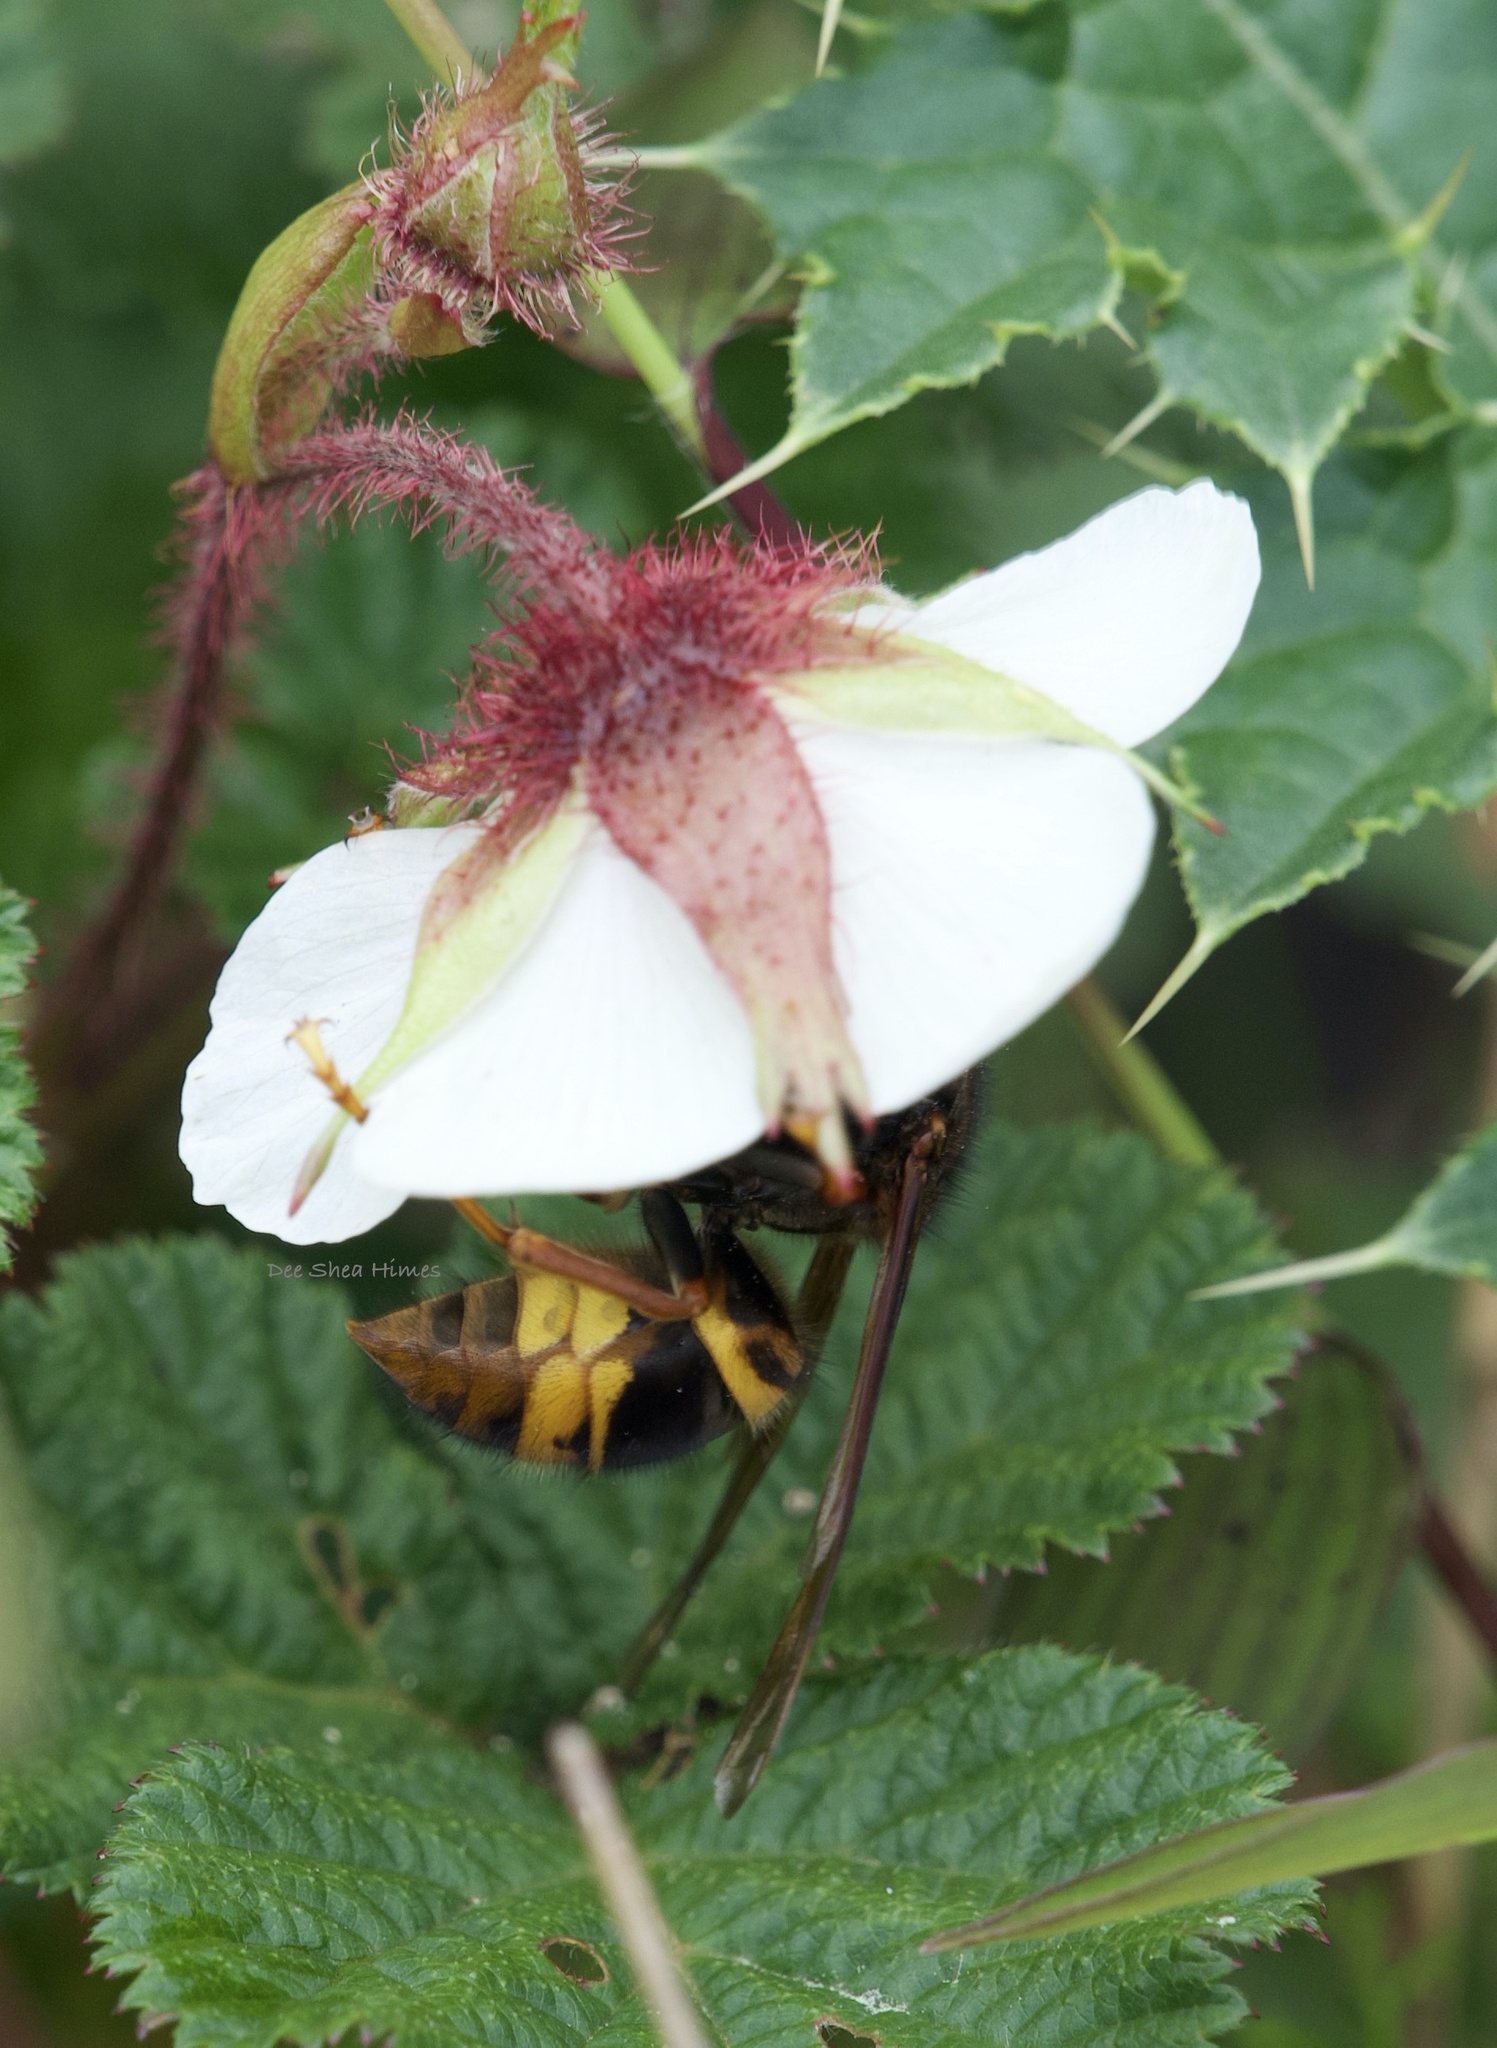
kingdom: Animalia
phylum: Arthropoda
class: Insecta
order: Hymenoptera
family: Vespidae
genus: Vespa
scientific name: Vespa vivax
